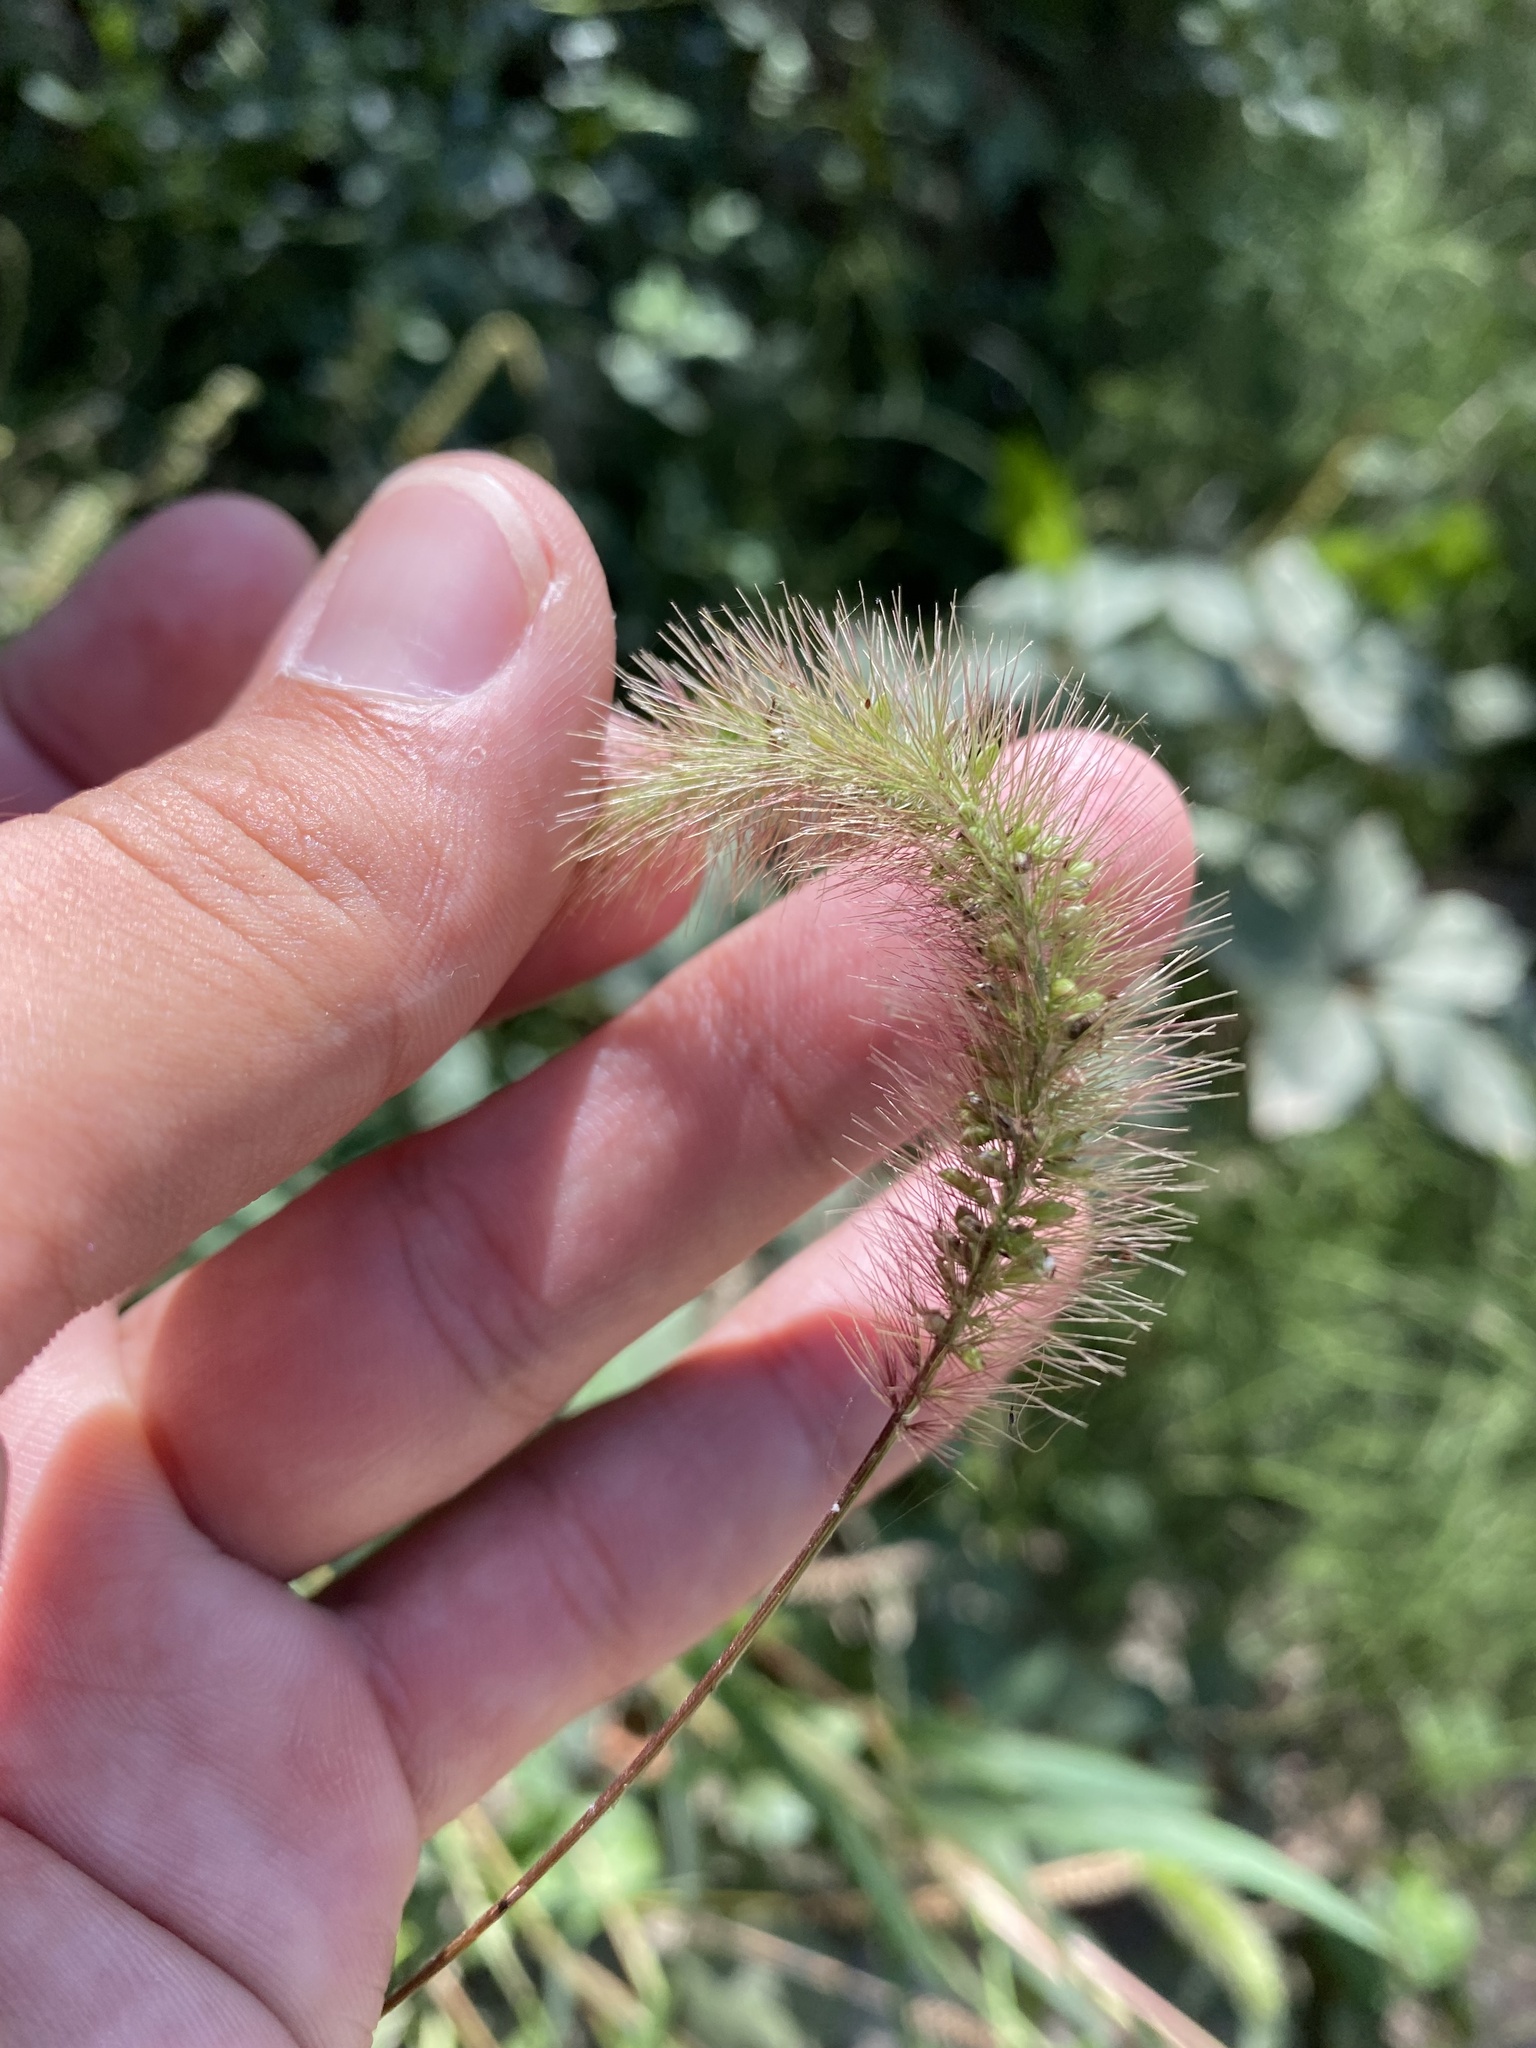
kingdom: Plantae
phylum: Tracheophyta
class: Liliopsida
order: Poales
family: Poaceae
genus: Setaria
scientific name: Setaria viridis
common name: Green bristlegrass
